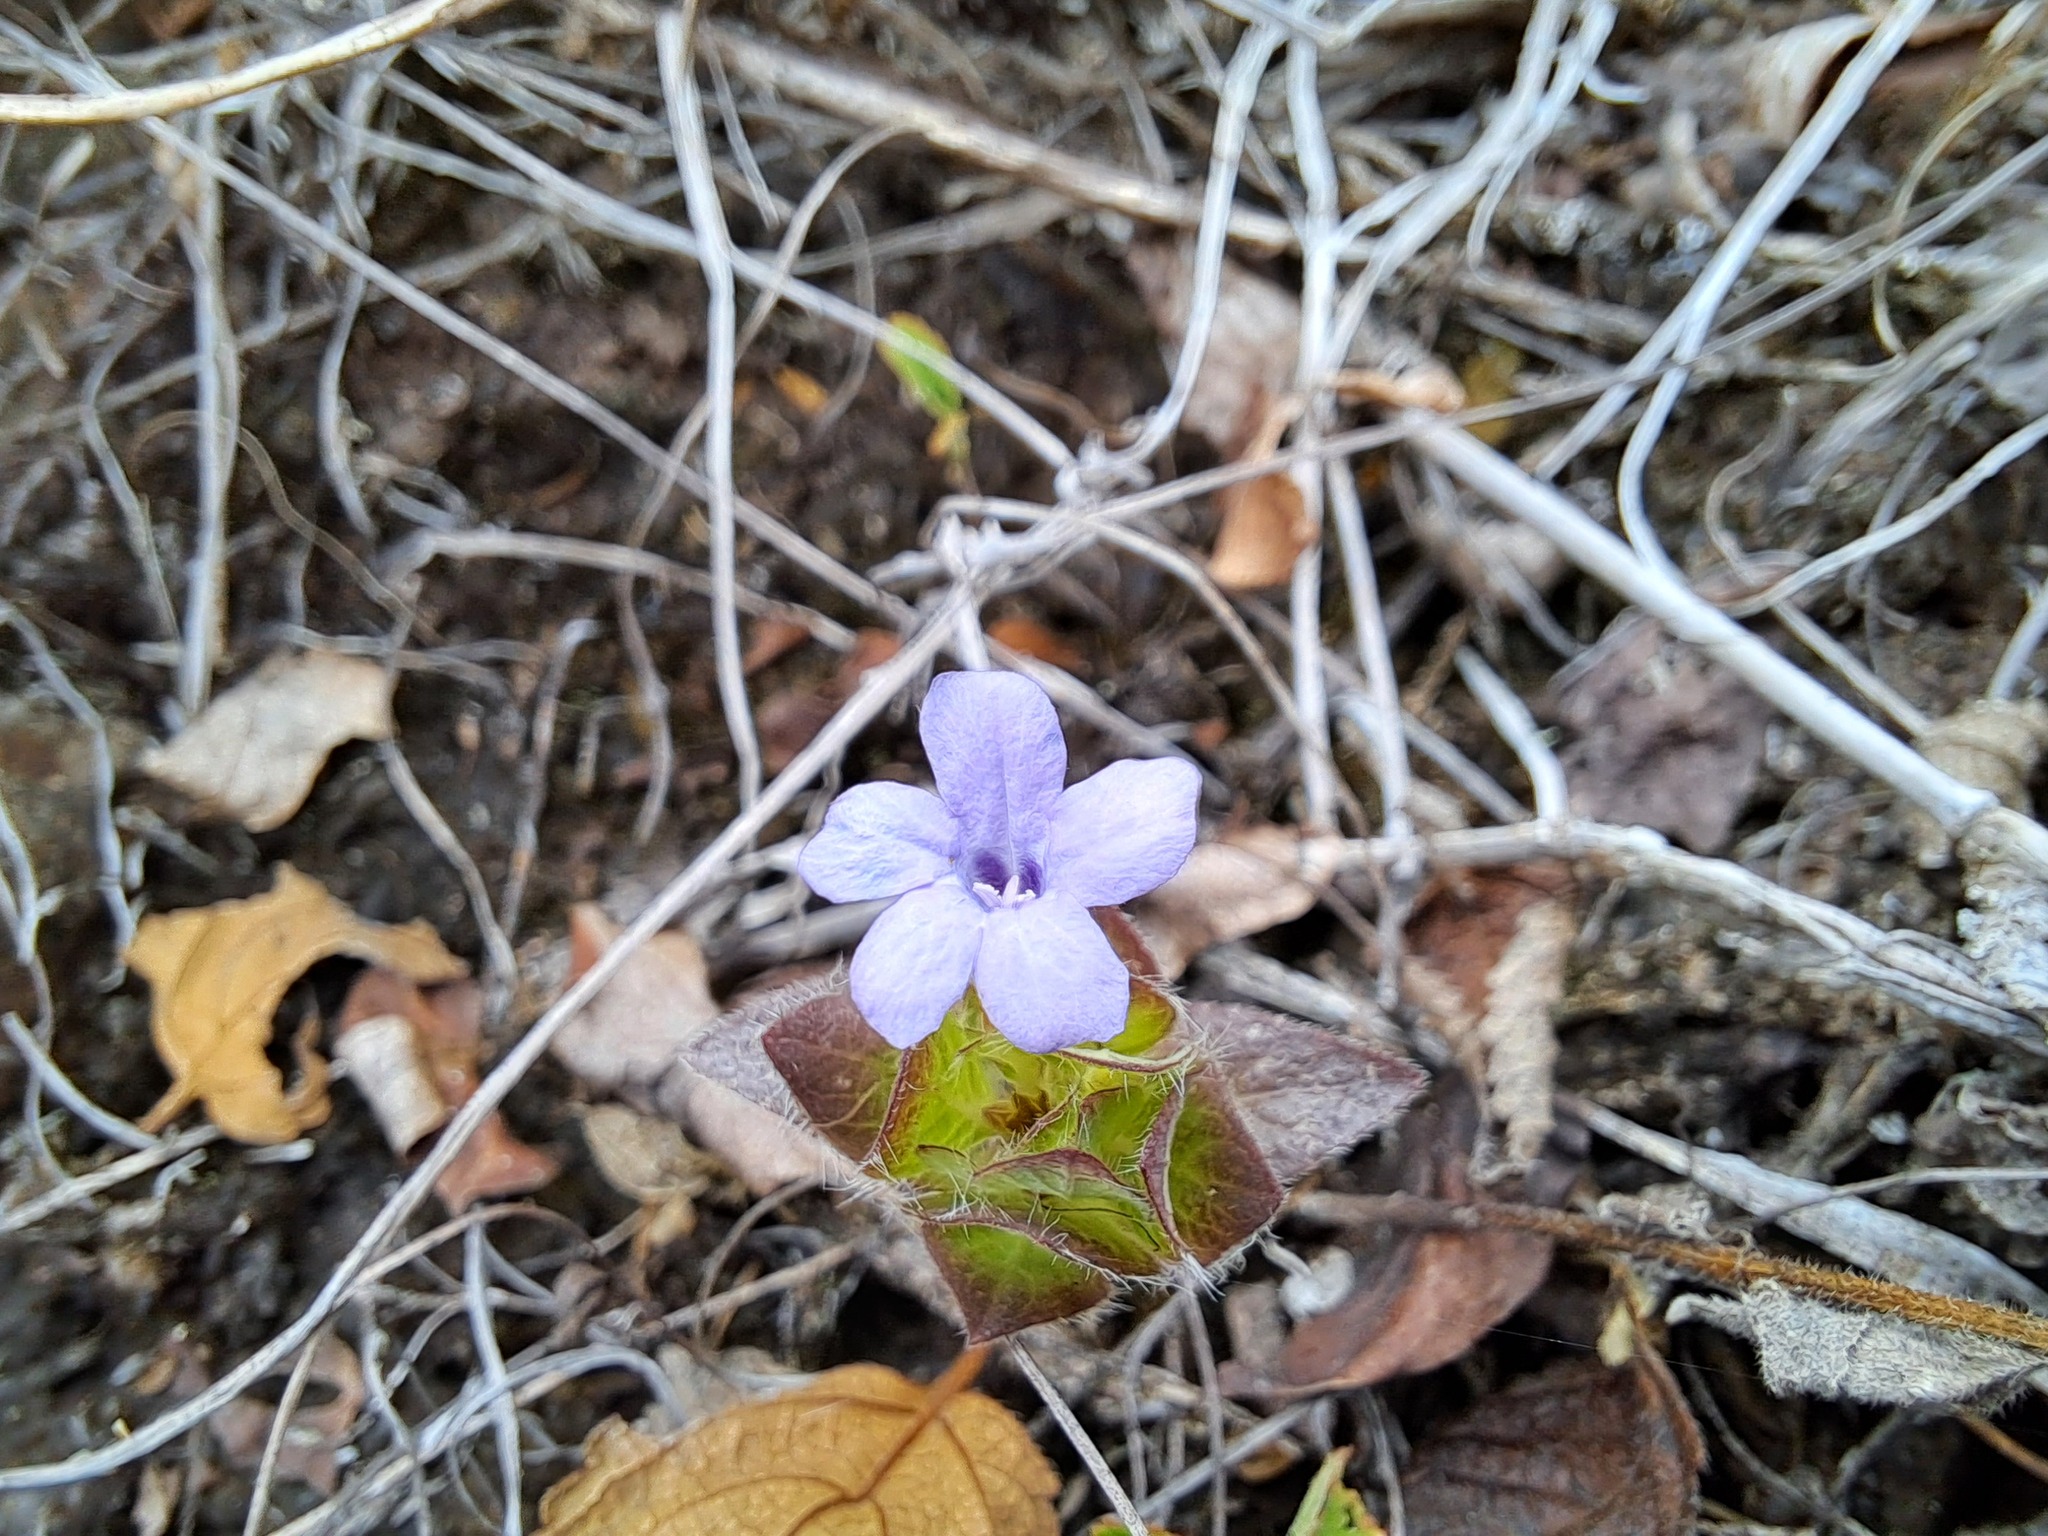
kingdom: Plantae
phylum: Tracheophyta
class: Magnoliopsida
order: Lamiales
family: Acanthaceae
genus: Ruellia
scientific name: Ruellia blechum
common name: Browne's blechum
